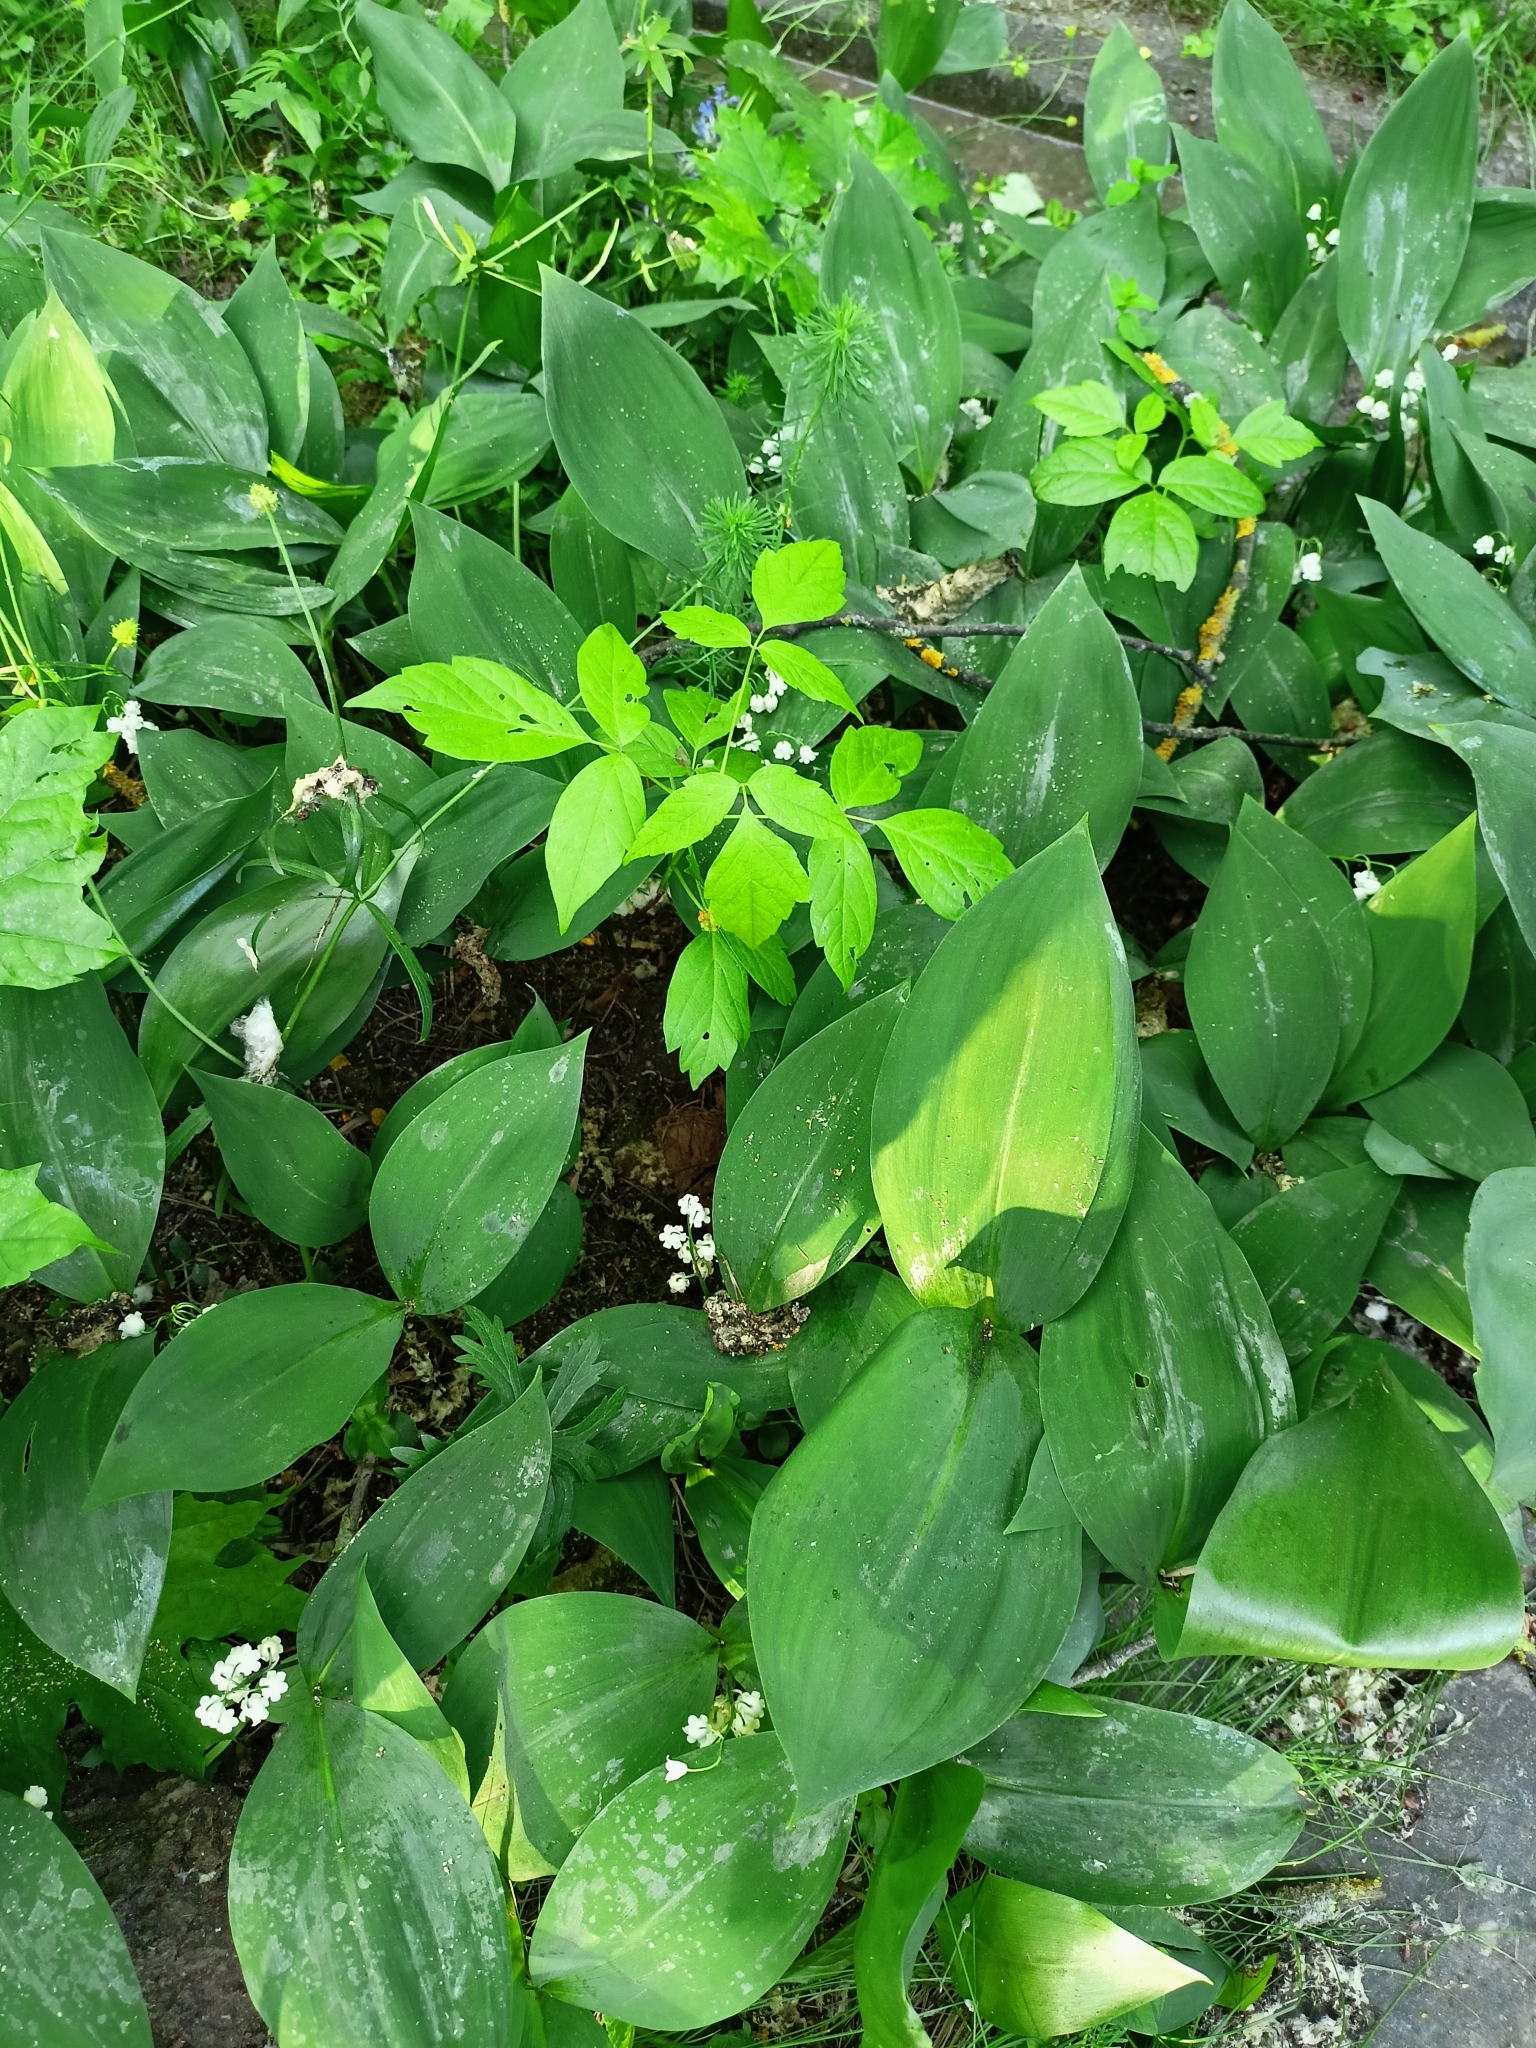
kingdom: Plantae
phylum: Tracheophyta
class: Liliopsida
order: Asparagales
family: Asparagaceae
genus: Convallaria
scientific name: Convallaria majalis
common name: Lily-of-the-valley
